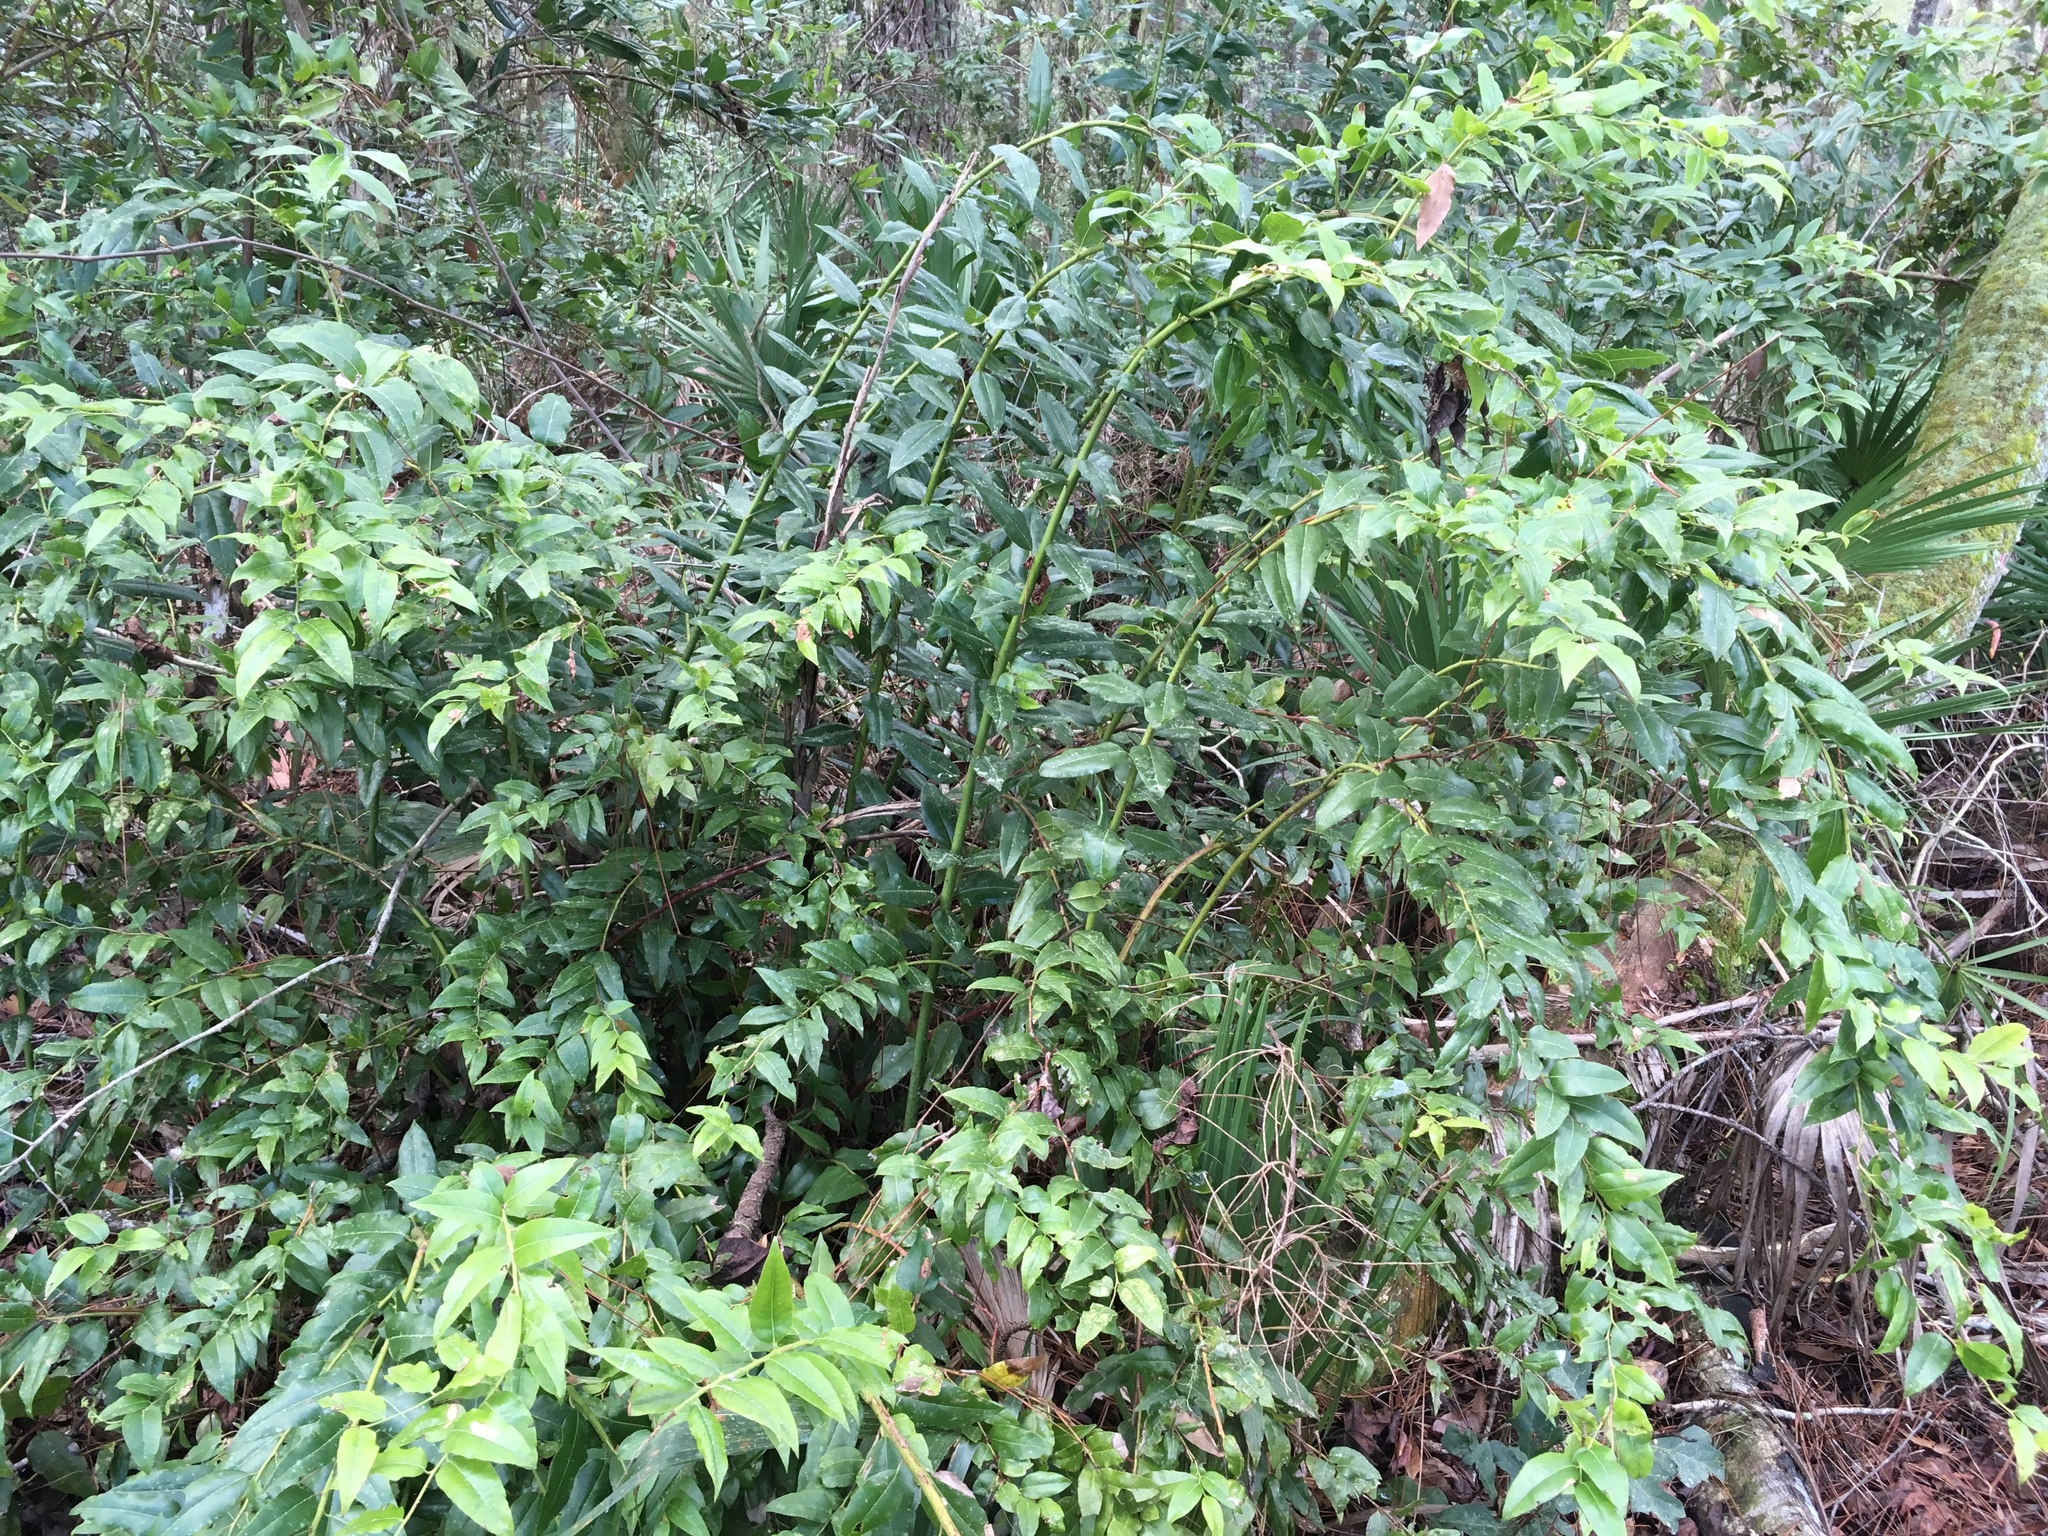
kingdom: Plantae
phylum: Tracheophyta
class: Magnoliopsida
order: Ericales
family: Ericaceae
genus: Agarista
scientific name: Agarista populifolia
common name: Pipeplant
